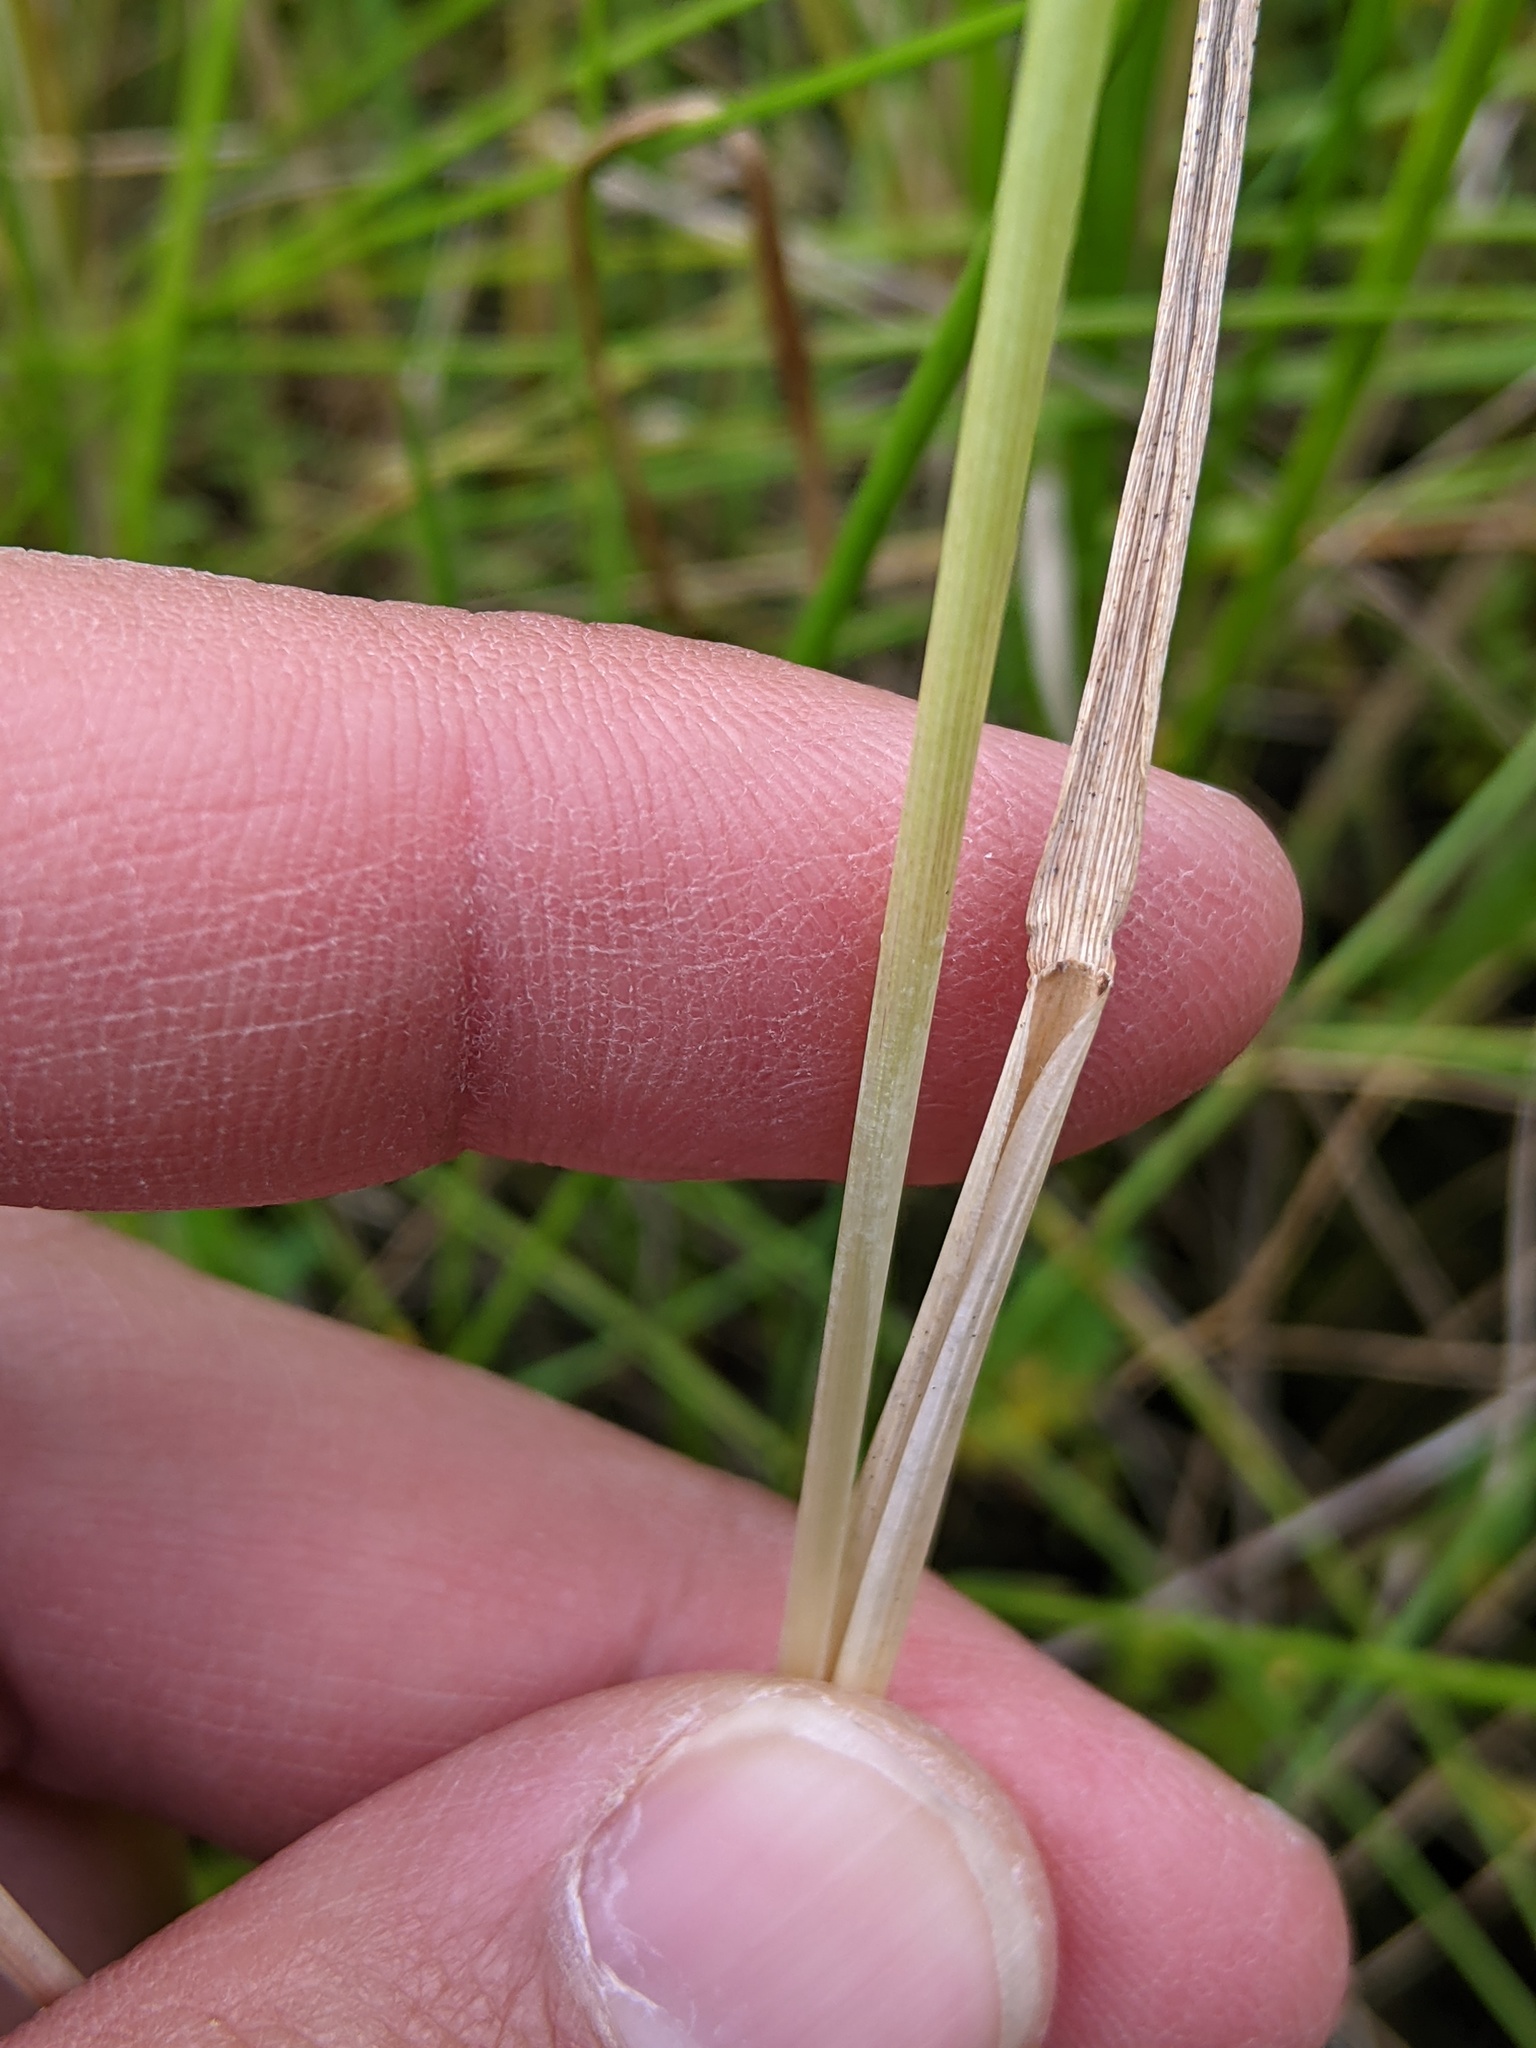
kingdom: Plantae
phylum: Tracheophyta
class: Liliopsida
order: Poales
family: Poaceae
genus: Leymus
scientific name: Leymus mollis
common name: American dune grass
